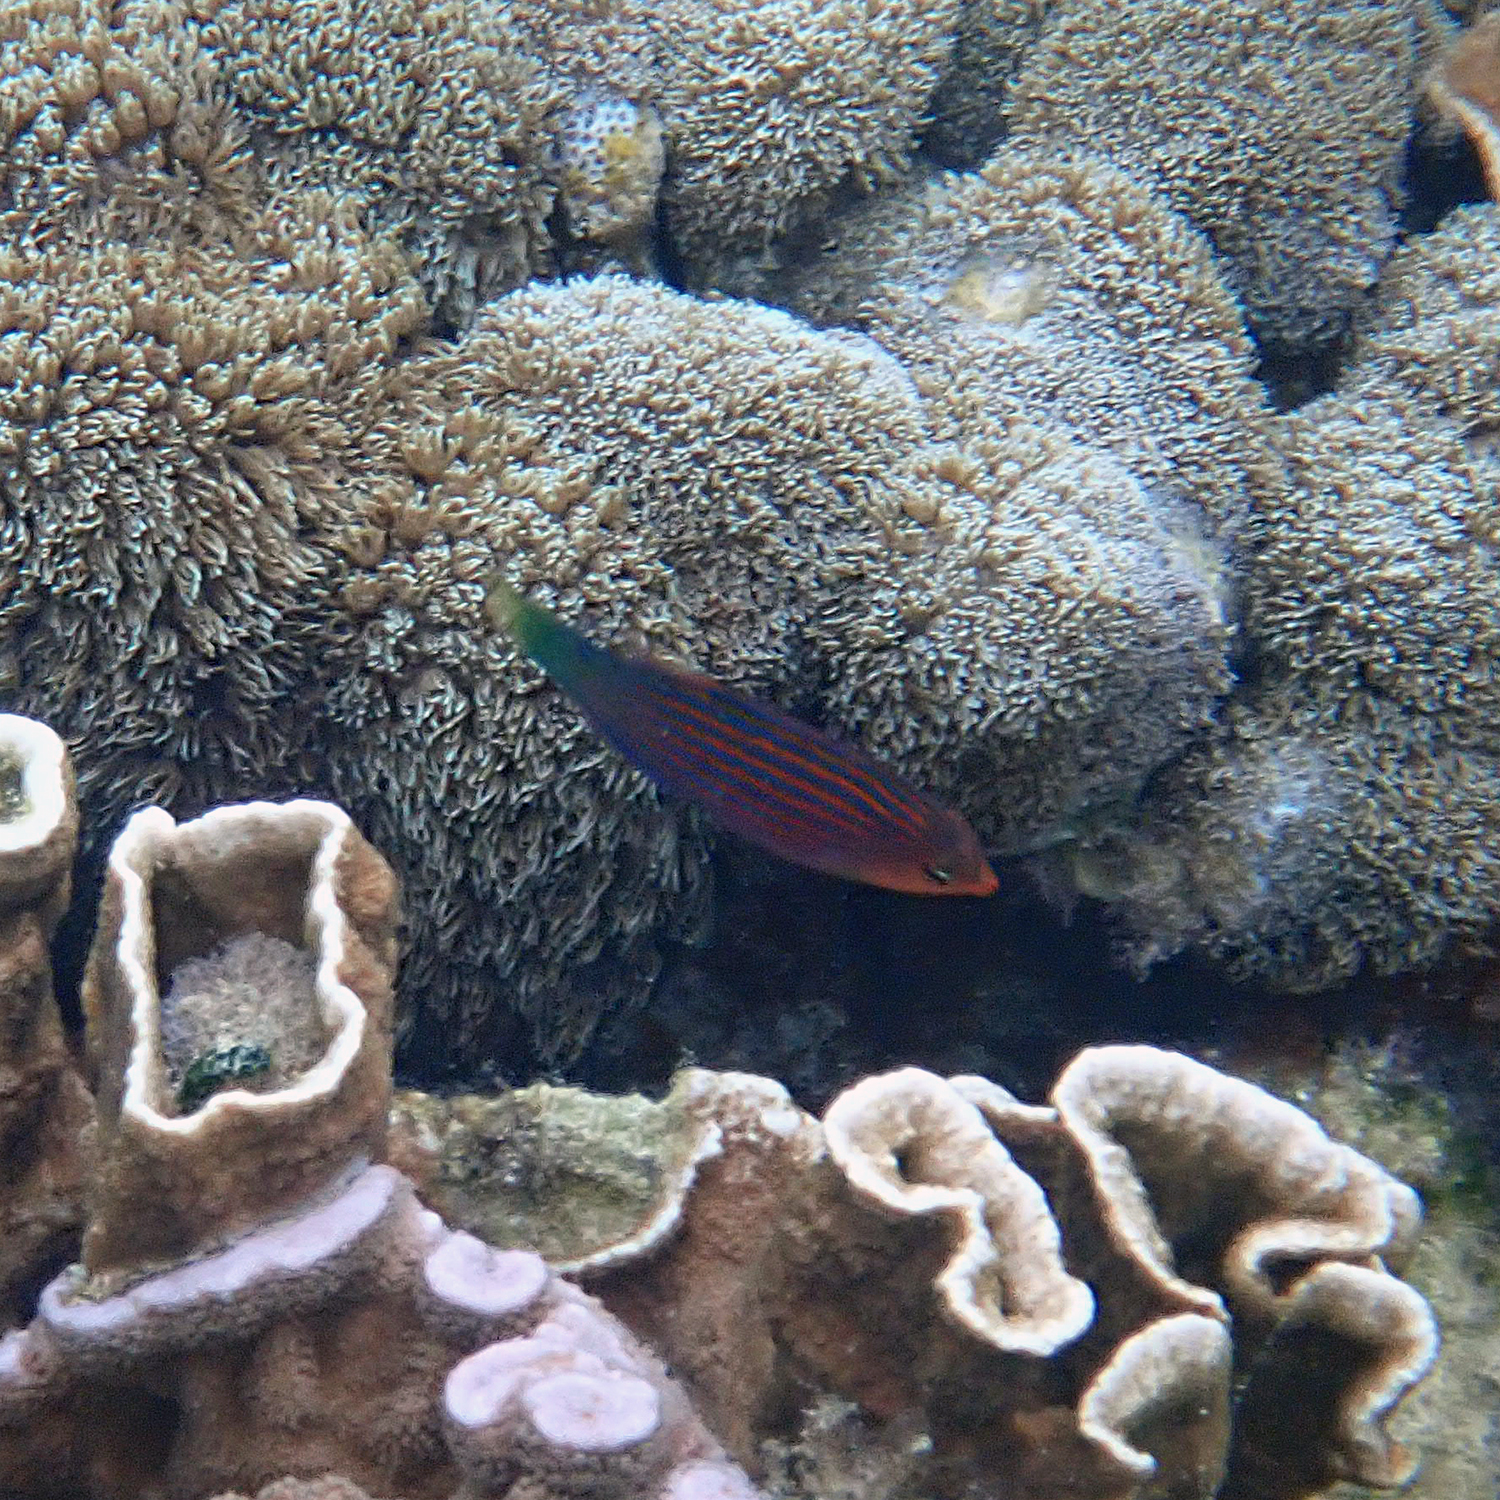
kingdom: Animalia
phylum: Chordata
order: Perciformes
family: Labridae
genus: Pseudocheilinus
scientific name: Pseudocheilinus hexataenia
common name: Sixline wrasse
